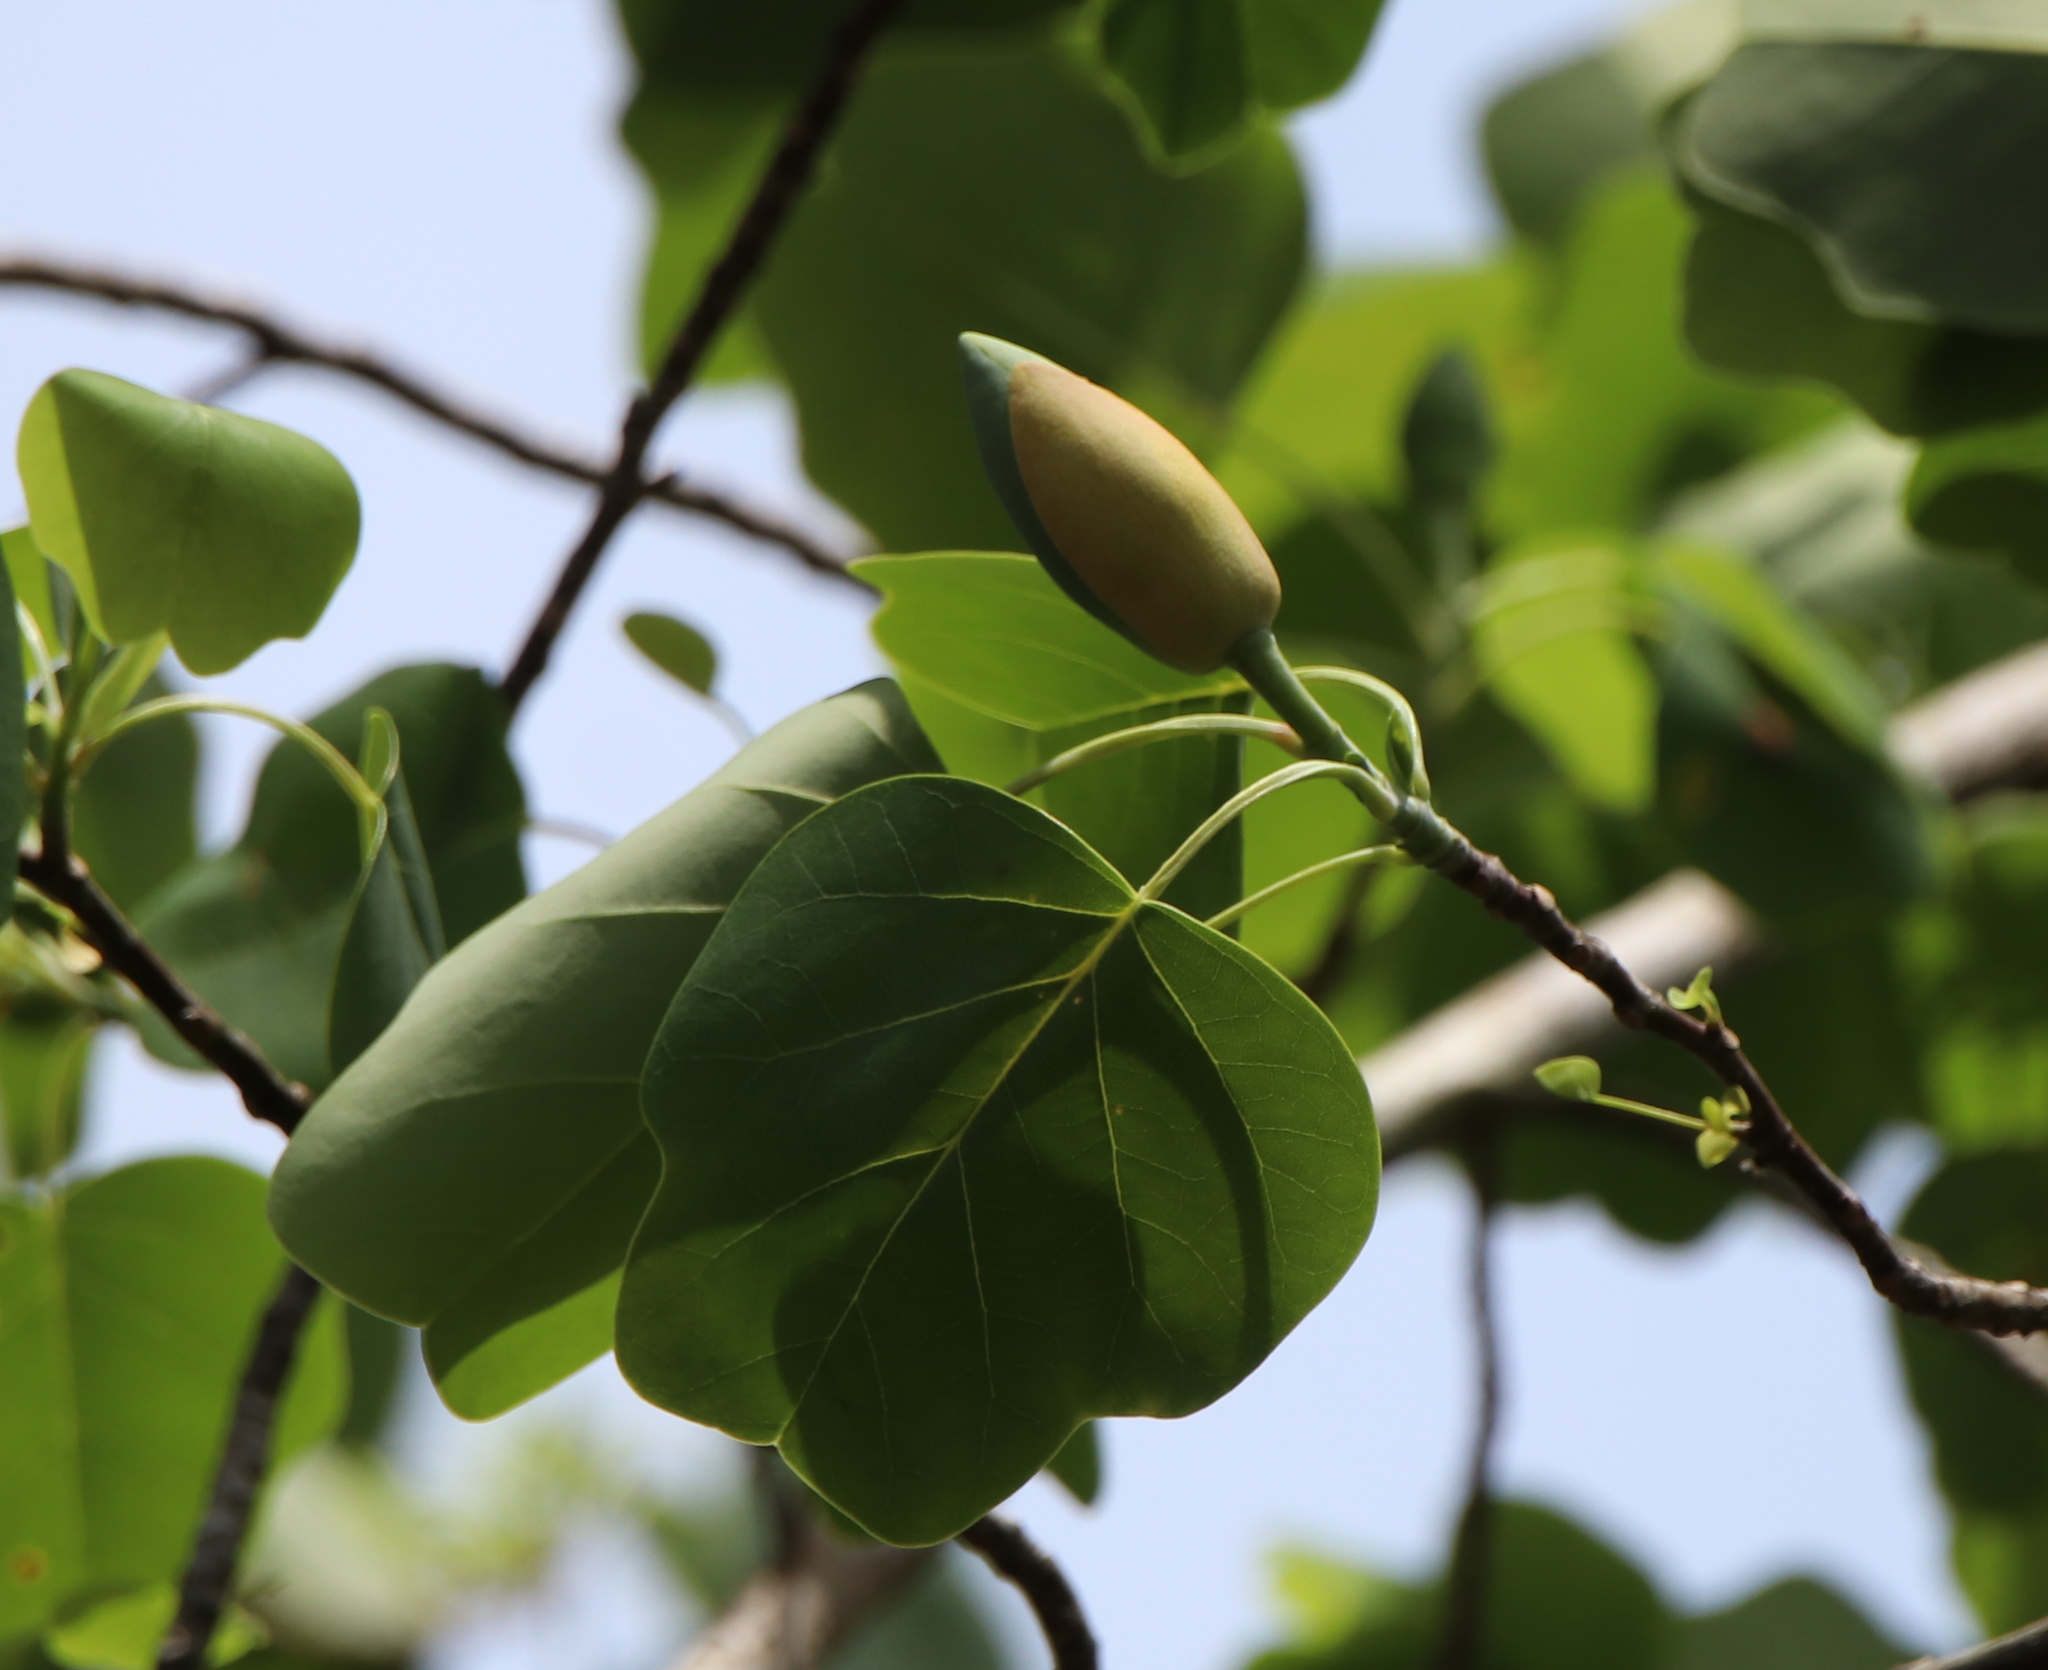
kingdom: Plantae
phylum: Tracheophyta
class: Magnoliopsida
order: Magnoliales
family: Magnoliaceae
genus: Liriodendron
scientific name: Liriodendron tulipifera
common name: Tulip tree
